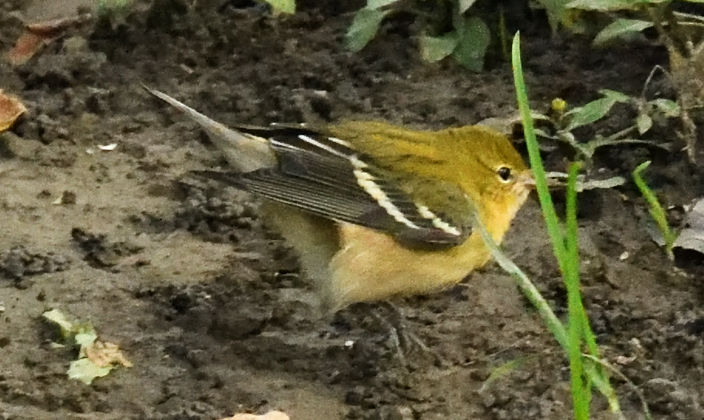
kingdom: Animalia
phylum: Chordata
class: Aves
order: Passeriformes
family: Parulidae
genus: Setophaga
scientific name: Setophaga castanea
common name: Bay-breasted warbler
